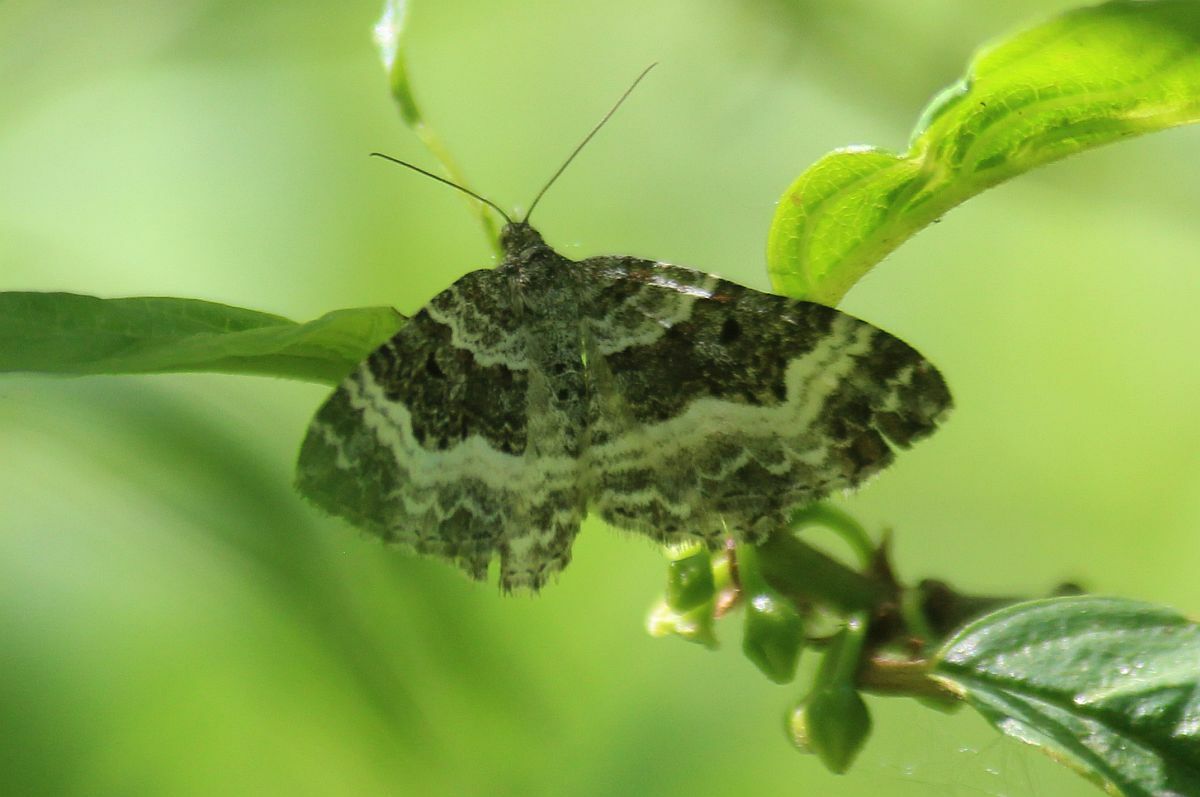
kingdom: Animalia
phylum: Arthropoda
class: Insecta
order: Lepidoptera
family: Geometridae
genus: Epirrhoe
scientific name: Epirrhoe alternata
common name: Common carpet
